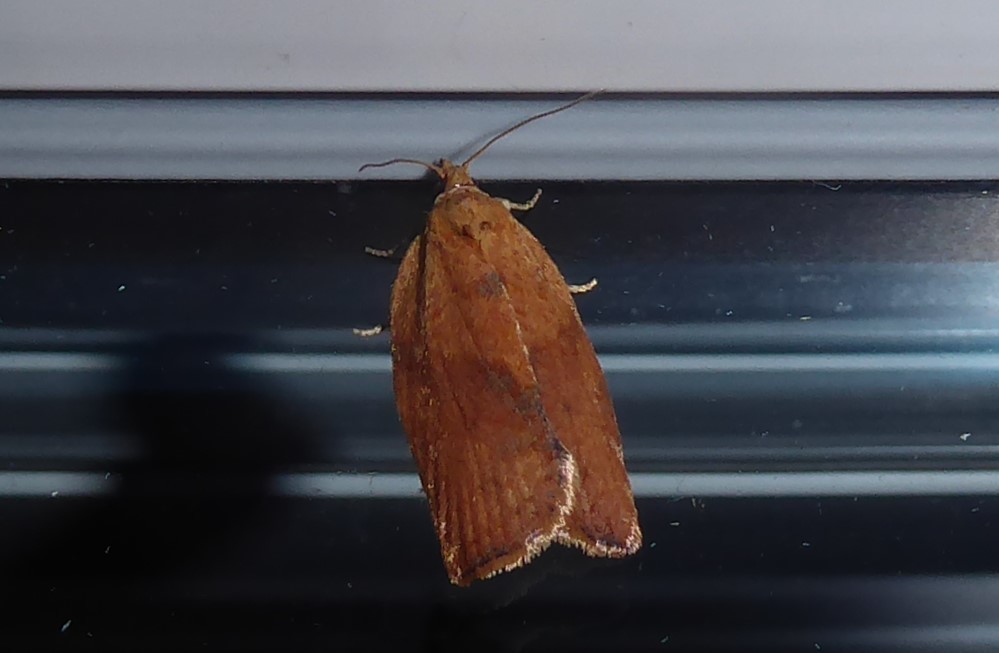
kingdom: Animalia
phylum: Arthropoda
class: Insecta
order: Lepidoptera
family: Tortricidae
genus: Epiphyas
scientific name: Epiphyas postvittana
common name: Light brown apple moth
